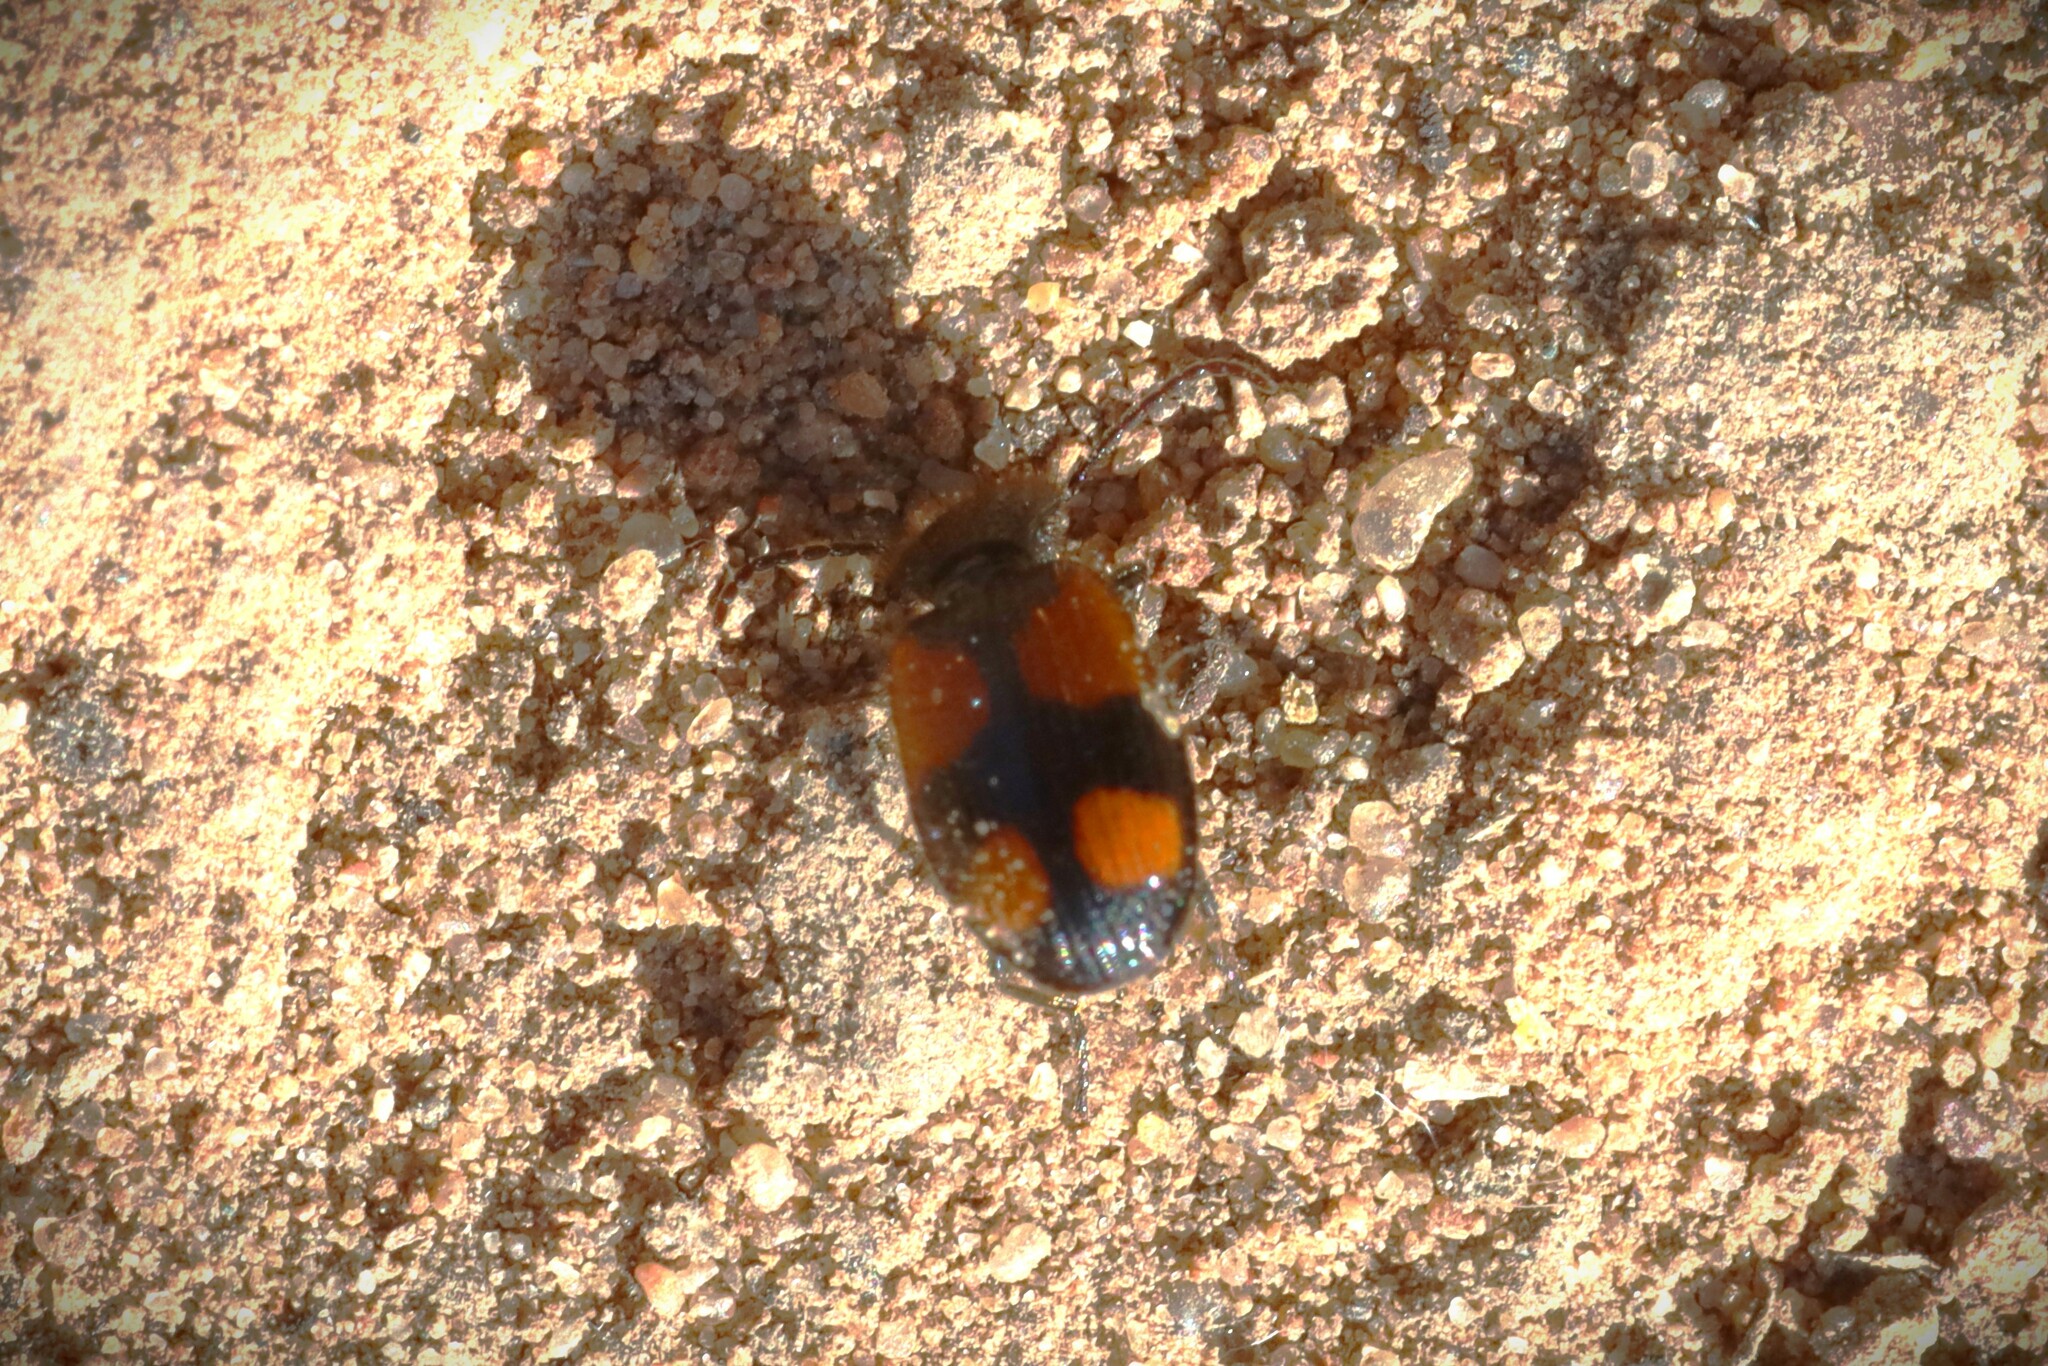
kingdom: Animalia
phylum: Arthropoda
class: Insecta
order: Coleoptera
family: Carabidae
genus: Panagaeus
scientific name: Panagaeus bipustulatus
